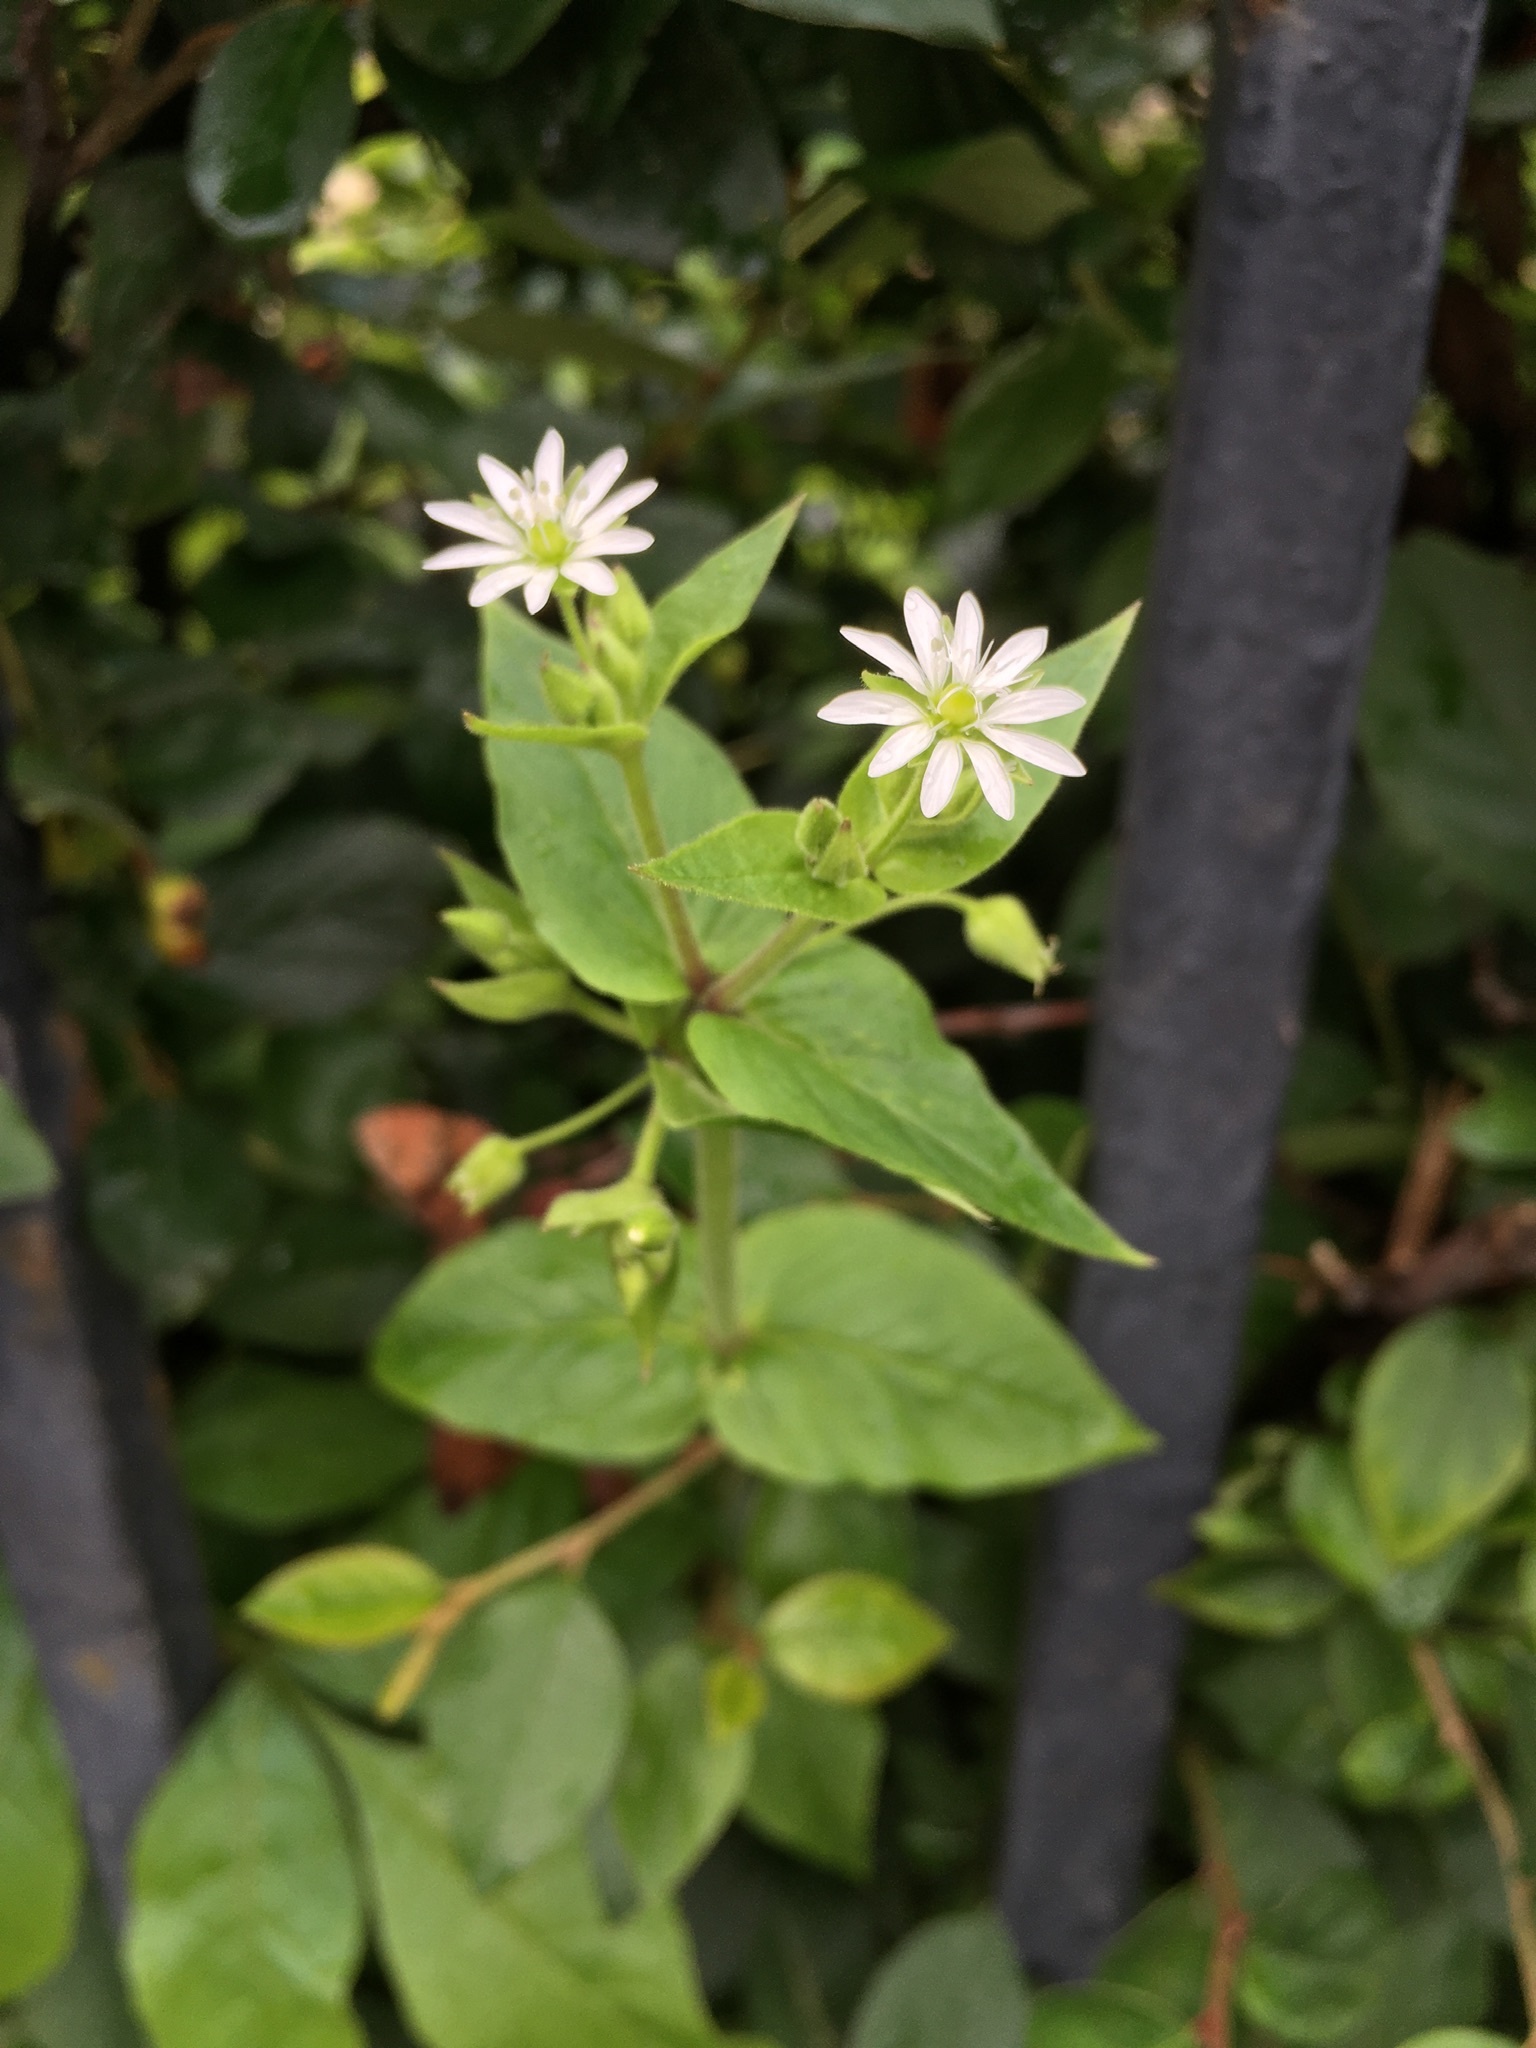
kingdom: Plantae
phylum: Tracheophyta
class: Magnoliopsida
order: Caryophyllales
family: Caryophyllaceae
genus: Stellaria
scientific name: Stellaria aquatica
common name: Water chickweed
